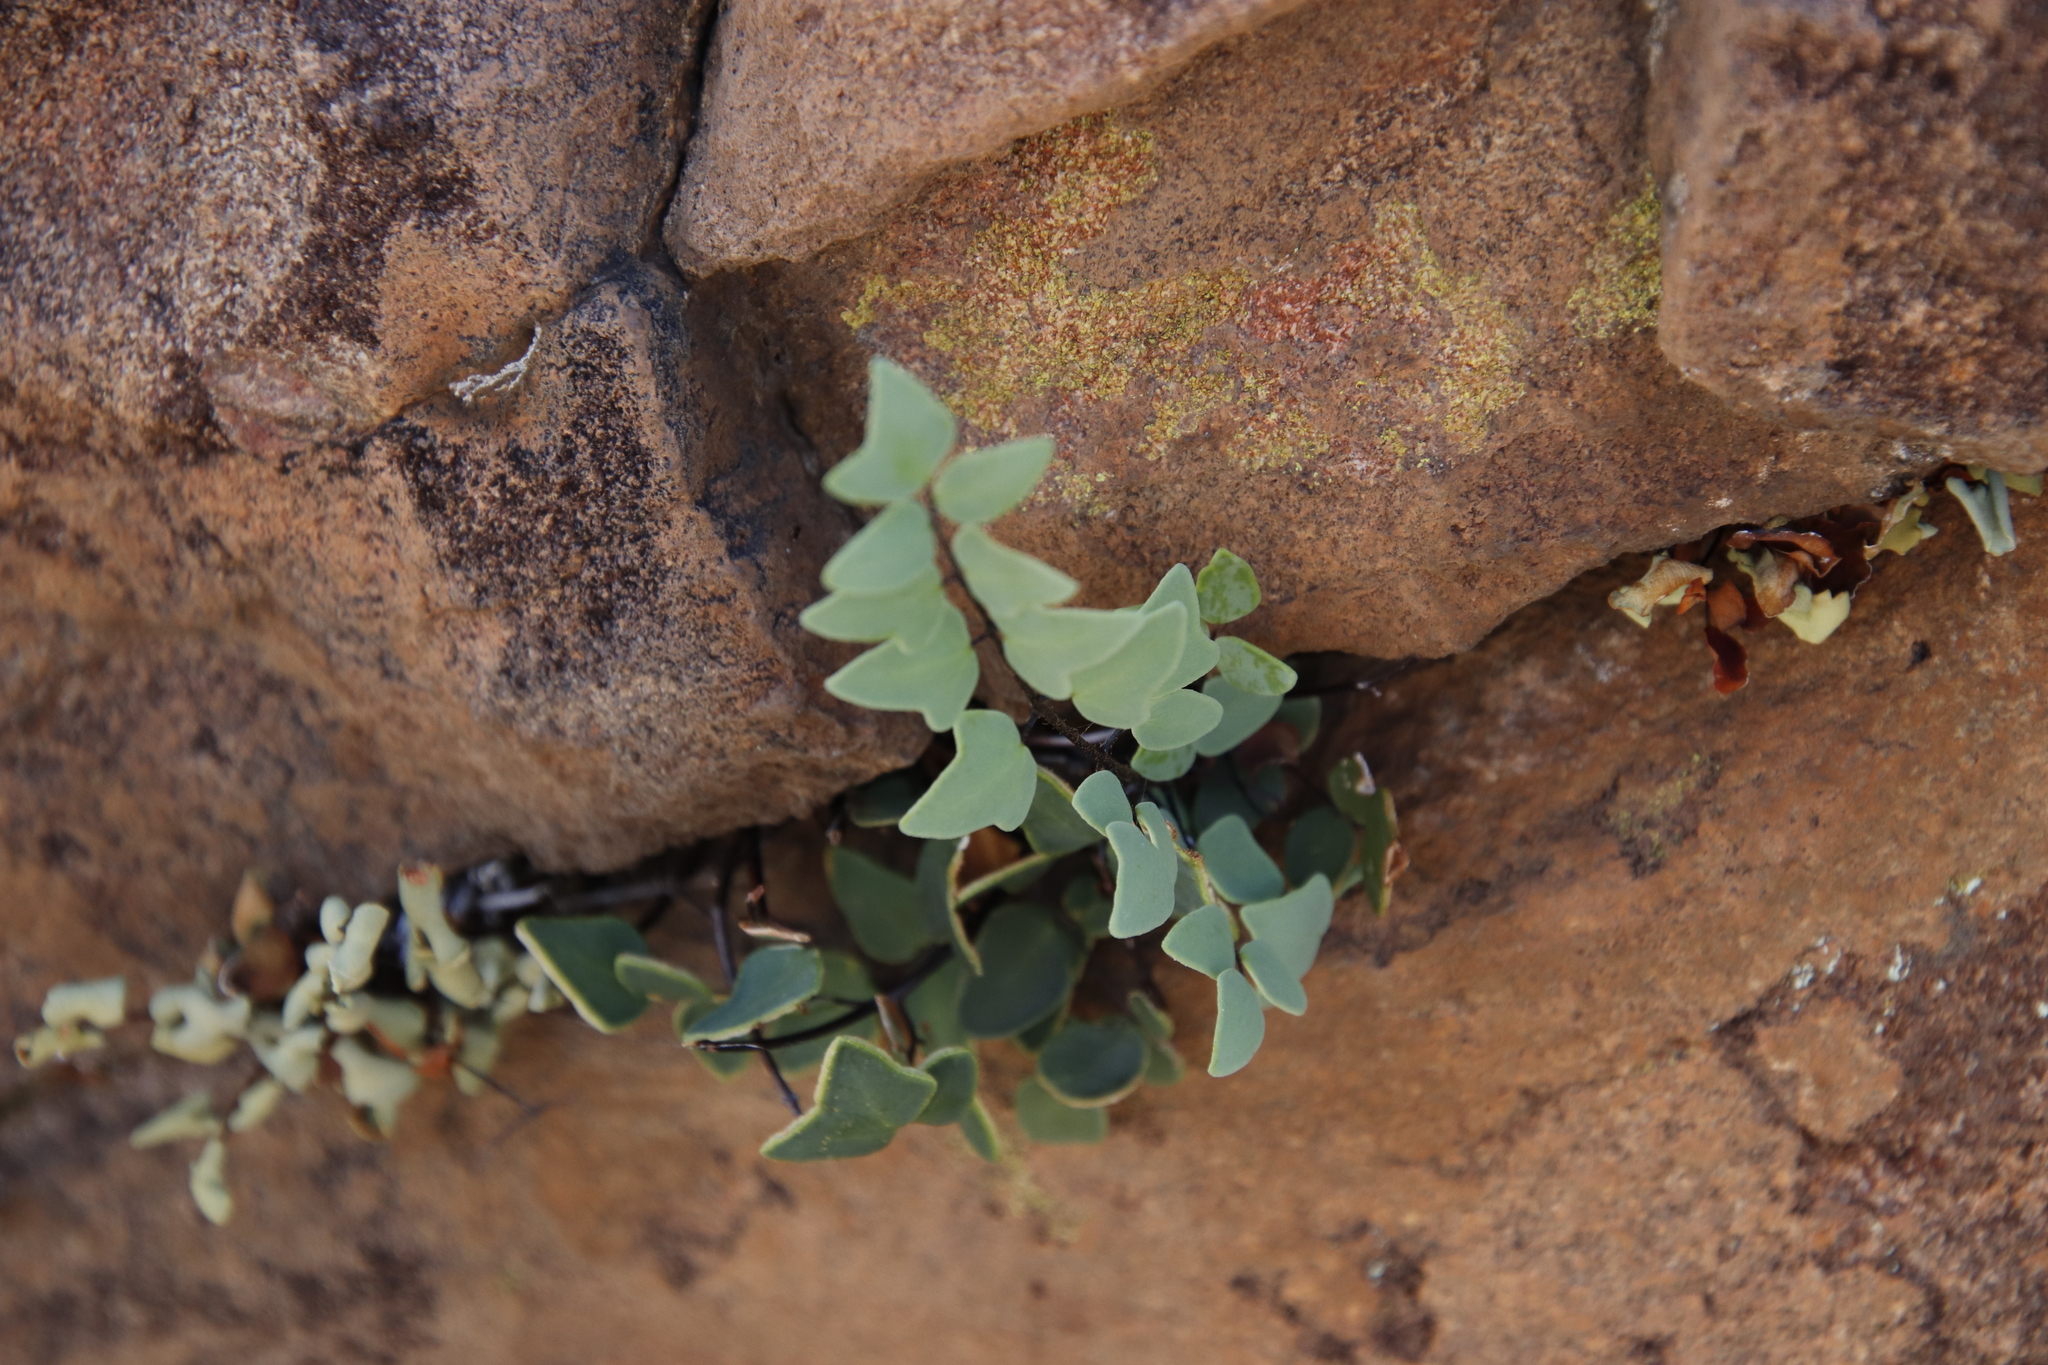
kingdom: Plantae
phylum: Tracheophyta
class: Polypodiopsida
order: Polypodiales
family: Pteridaceae
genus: Pellaea
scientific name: Pellaea calomelanos
